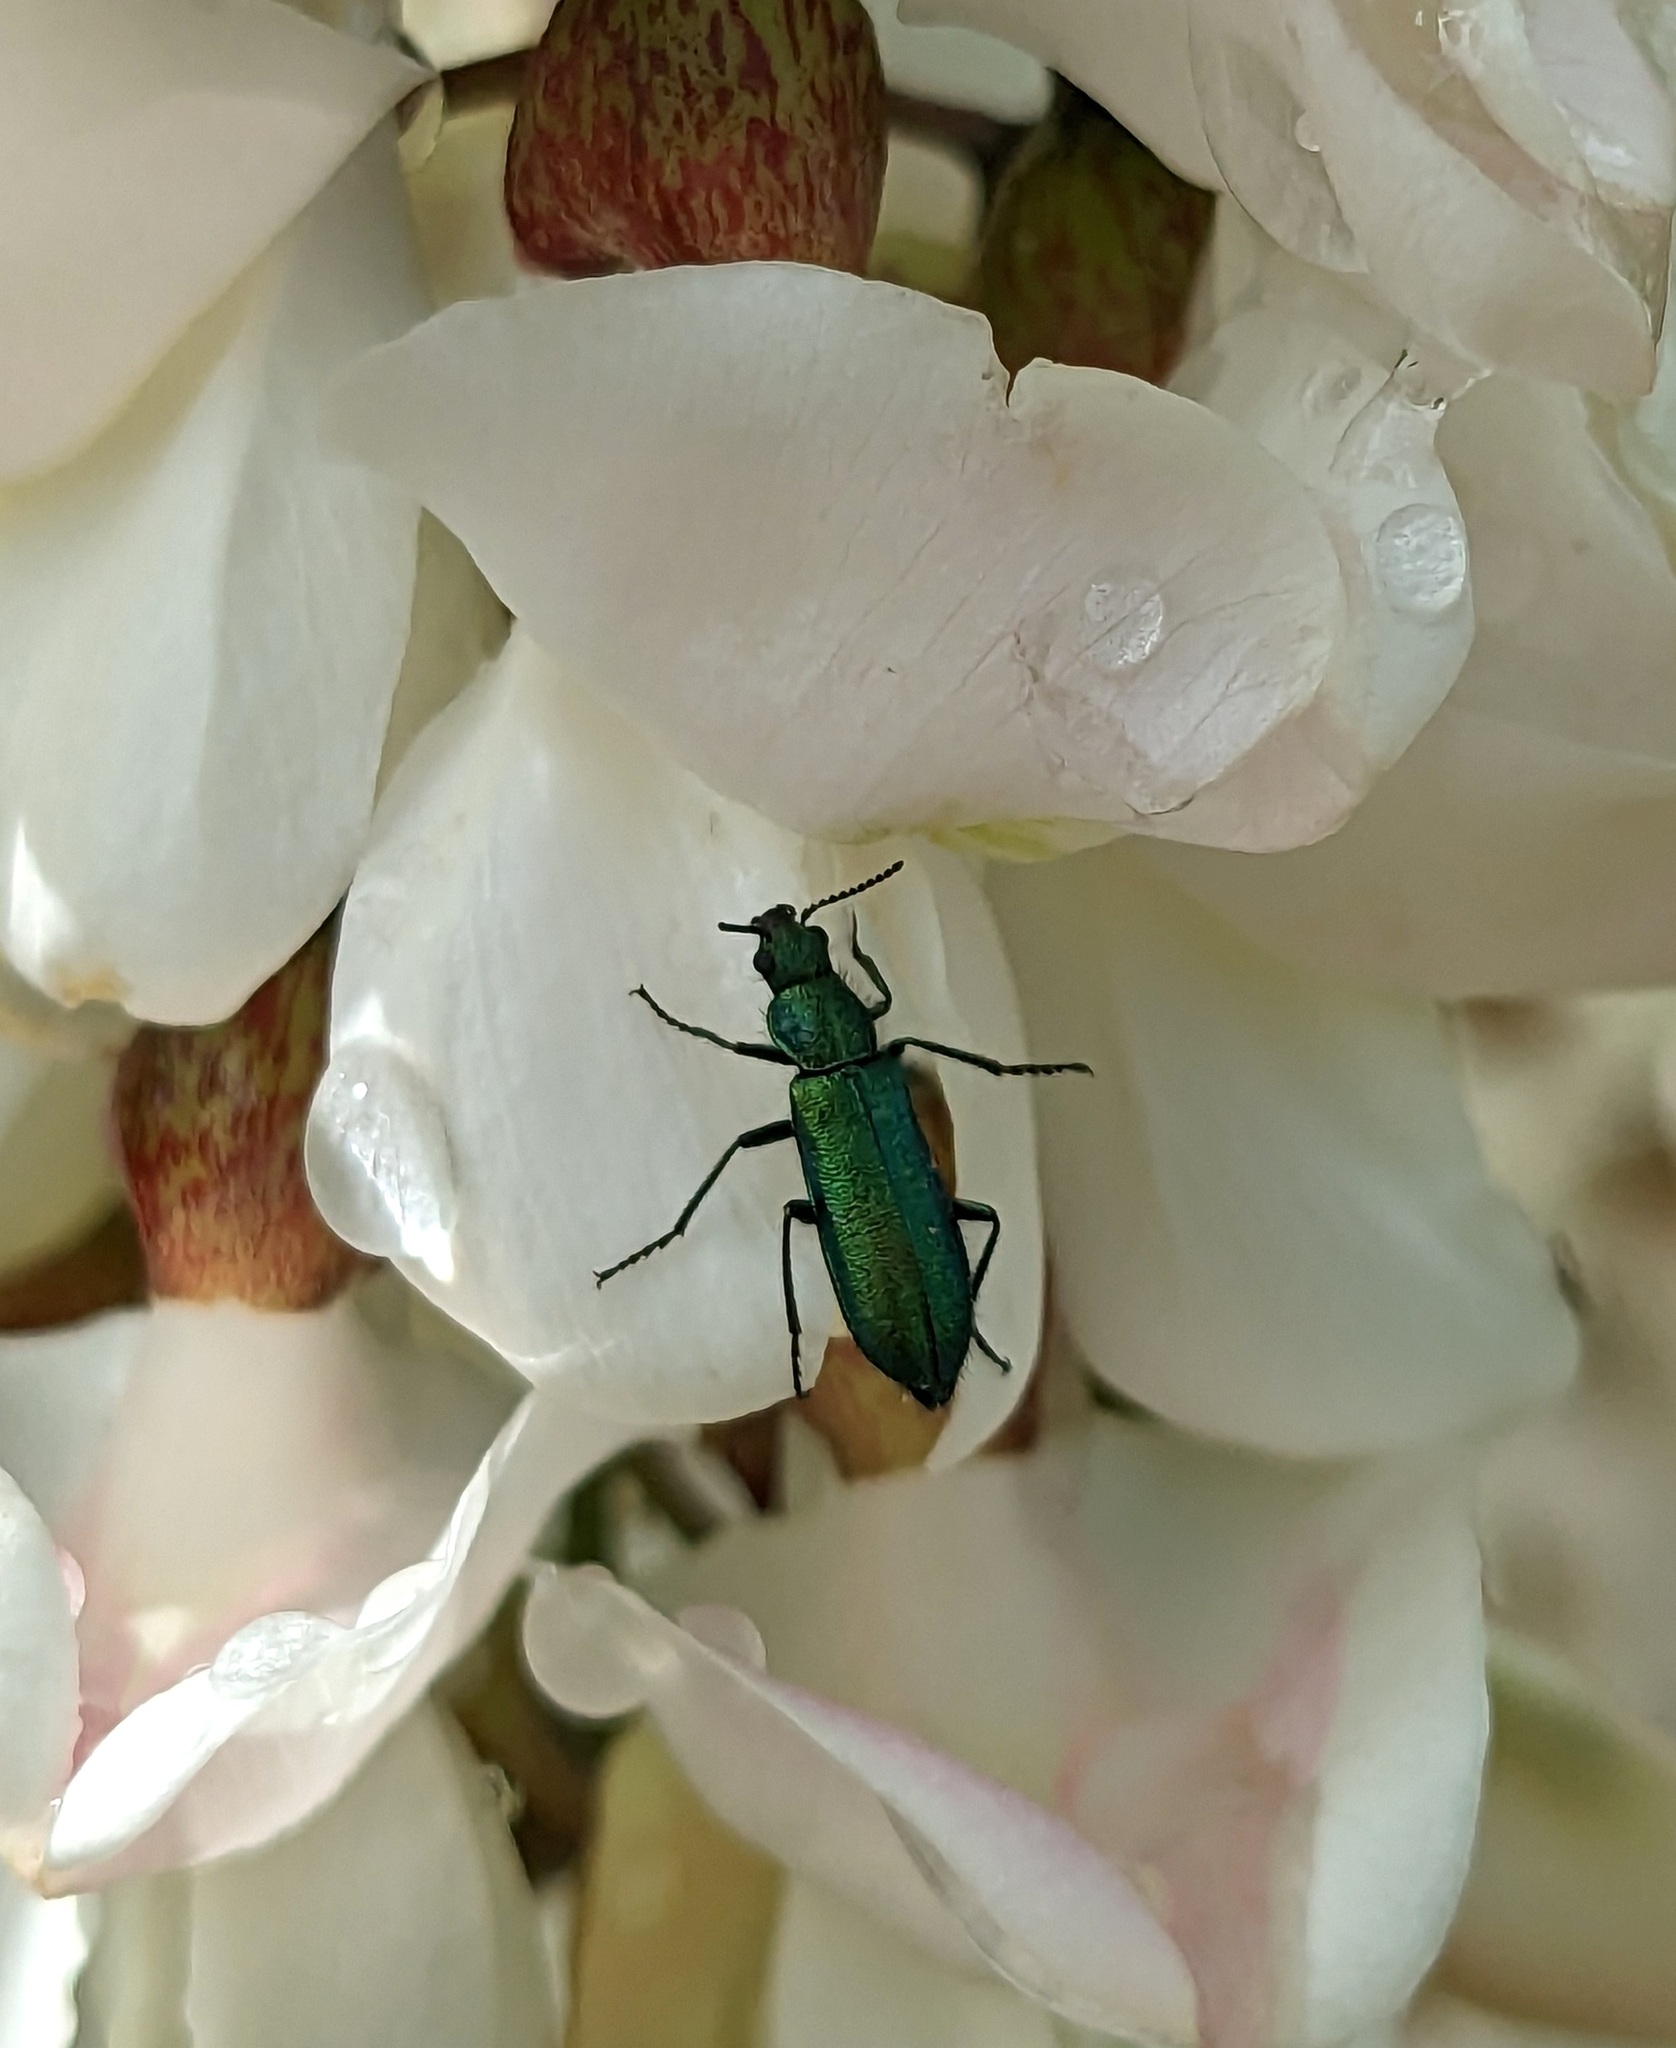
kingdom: Animalia
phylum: Arthropoda
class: Insecta
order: Coleoptera
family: Dasytidae
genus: Psilothrix
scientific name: Psilothrix viridicoerulea
